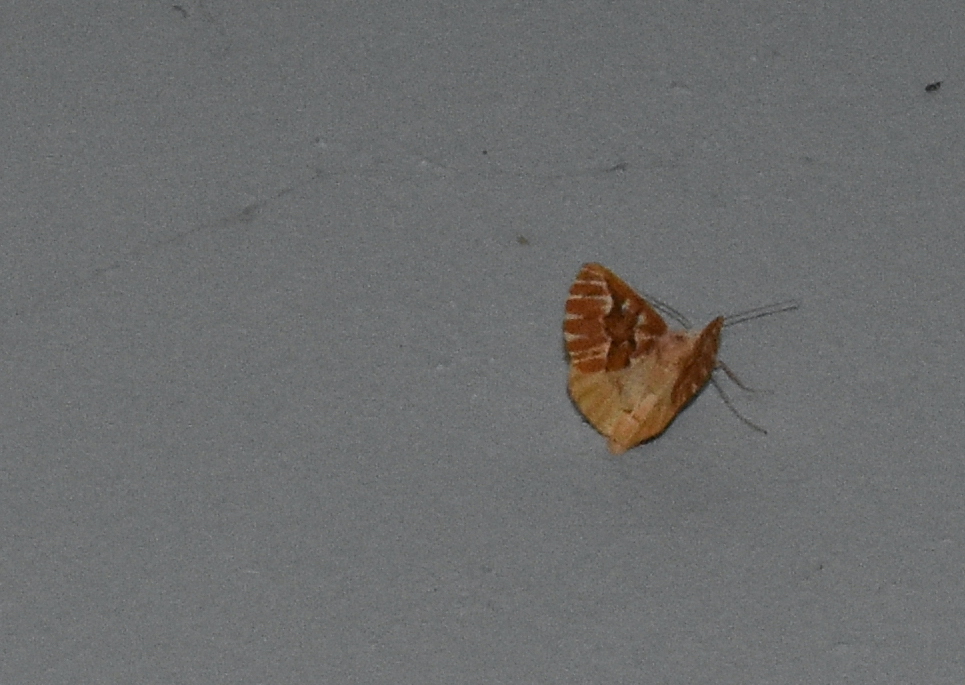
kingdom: Animalia
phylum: Arthropoda
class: Insecta
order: Lepidoptera
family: Geometridae
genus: Caripeta
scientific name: Caripeta aequaliaria
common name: Red girdle moth
